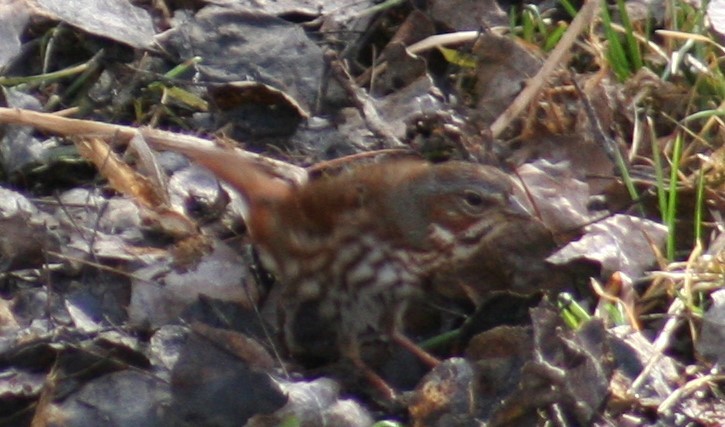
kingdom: Animalia
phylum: Chordata
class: Aves
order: Passeriformes
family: Passerellidae
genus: Passerella
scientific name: Passerella iliaca
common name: Fox sparrow
